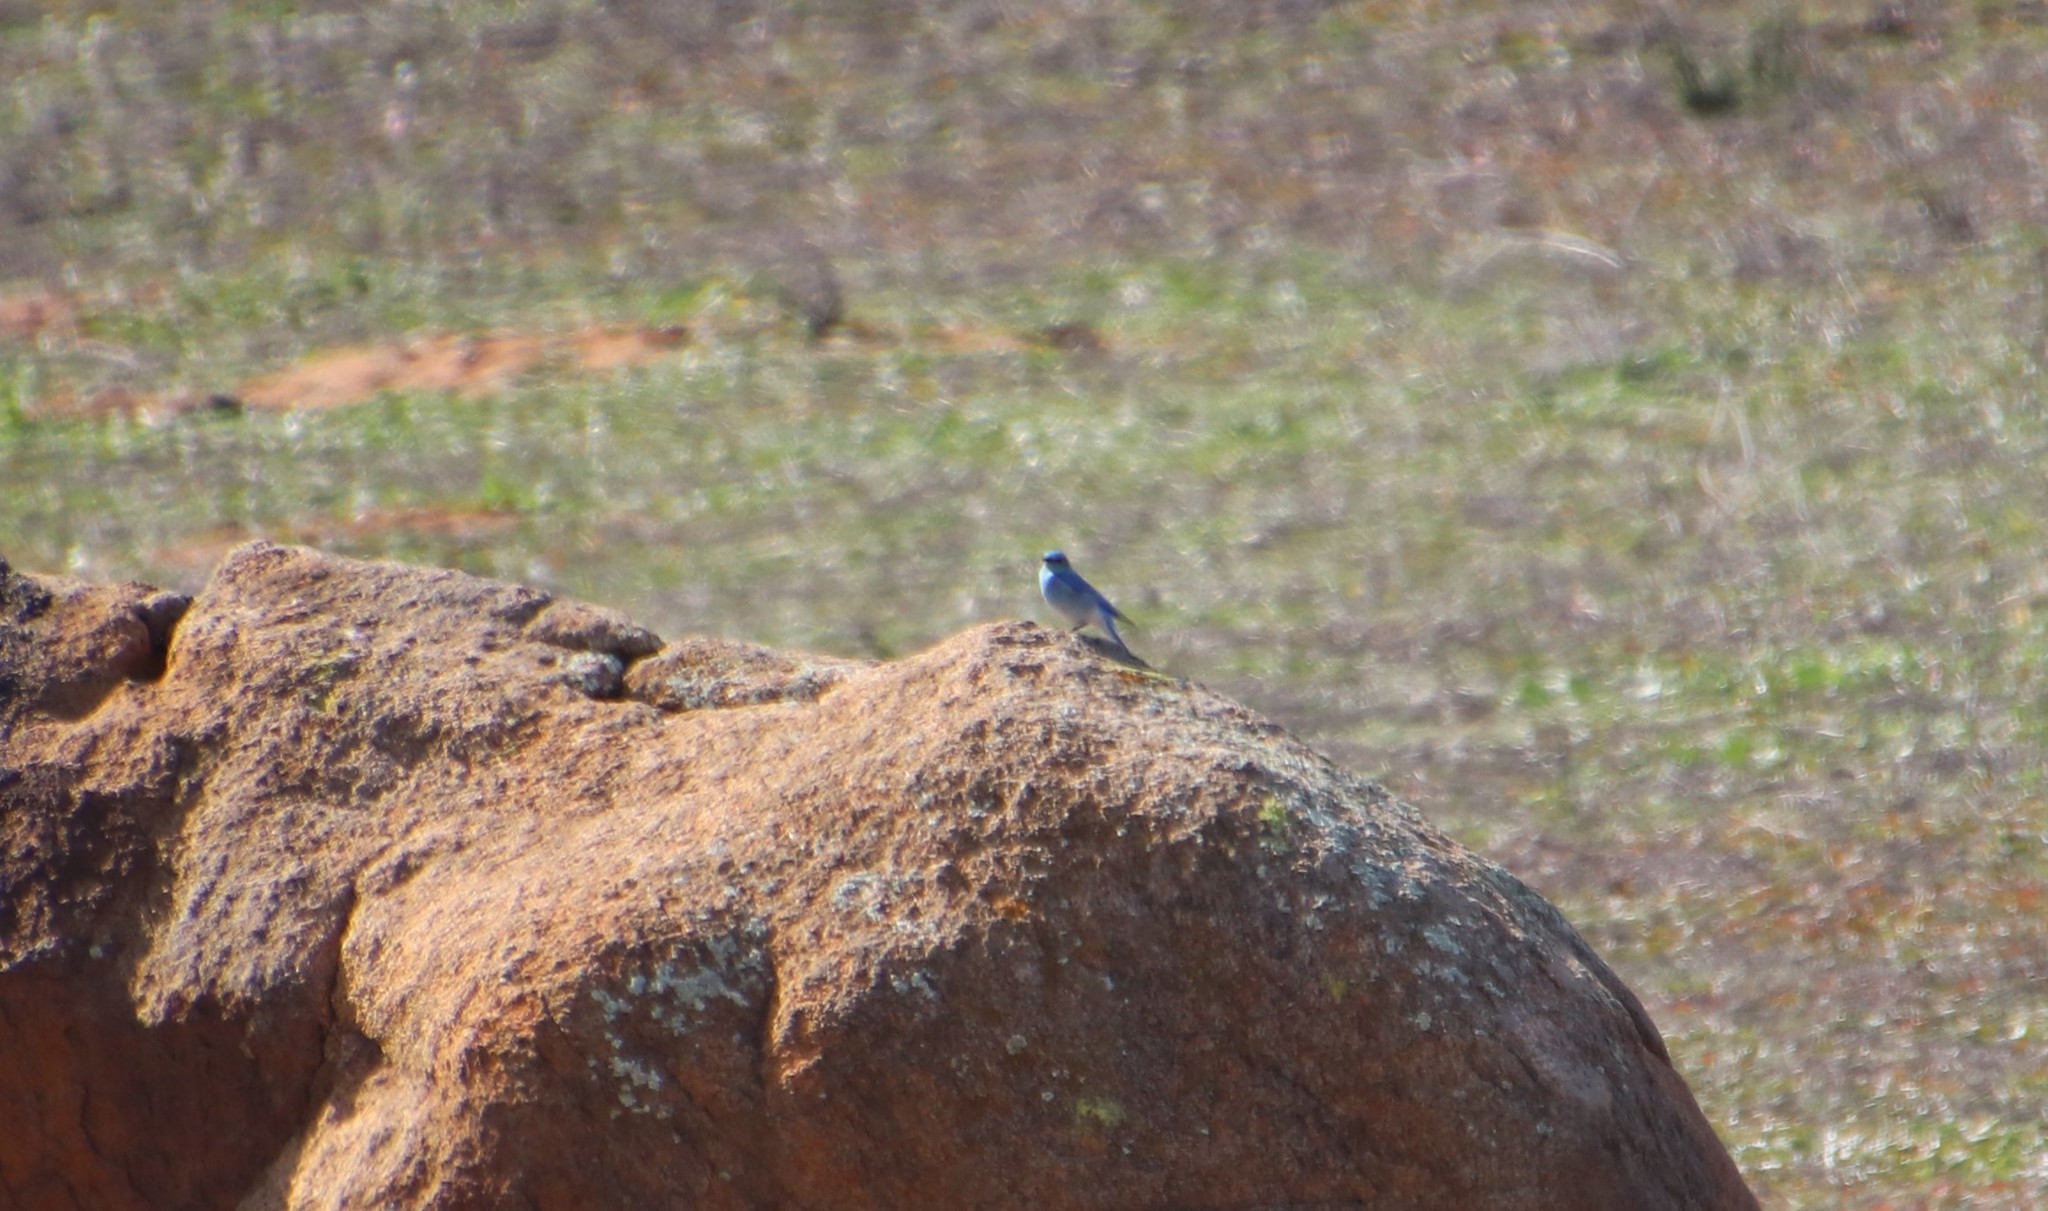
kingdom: Animalia
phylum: Chordata
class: Aves
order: Passeriformes
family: Turdidae
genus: Sialia
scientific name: Sialia currucoides
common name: Mountain bluebird
